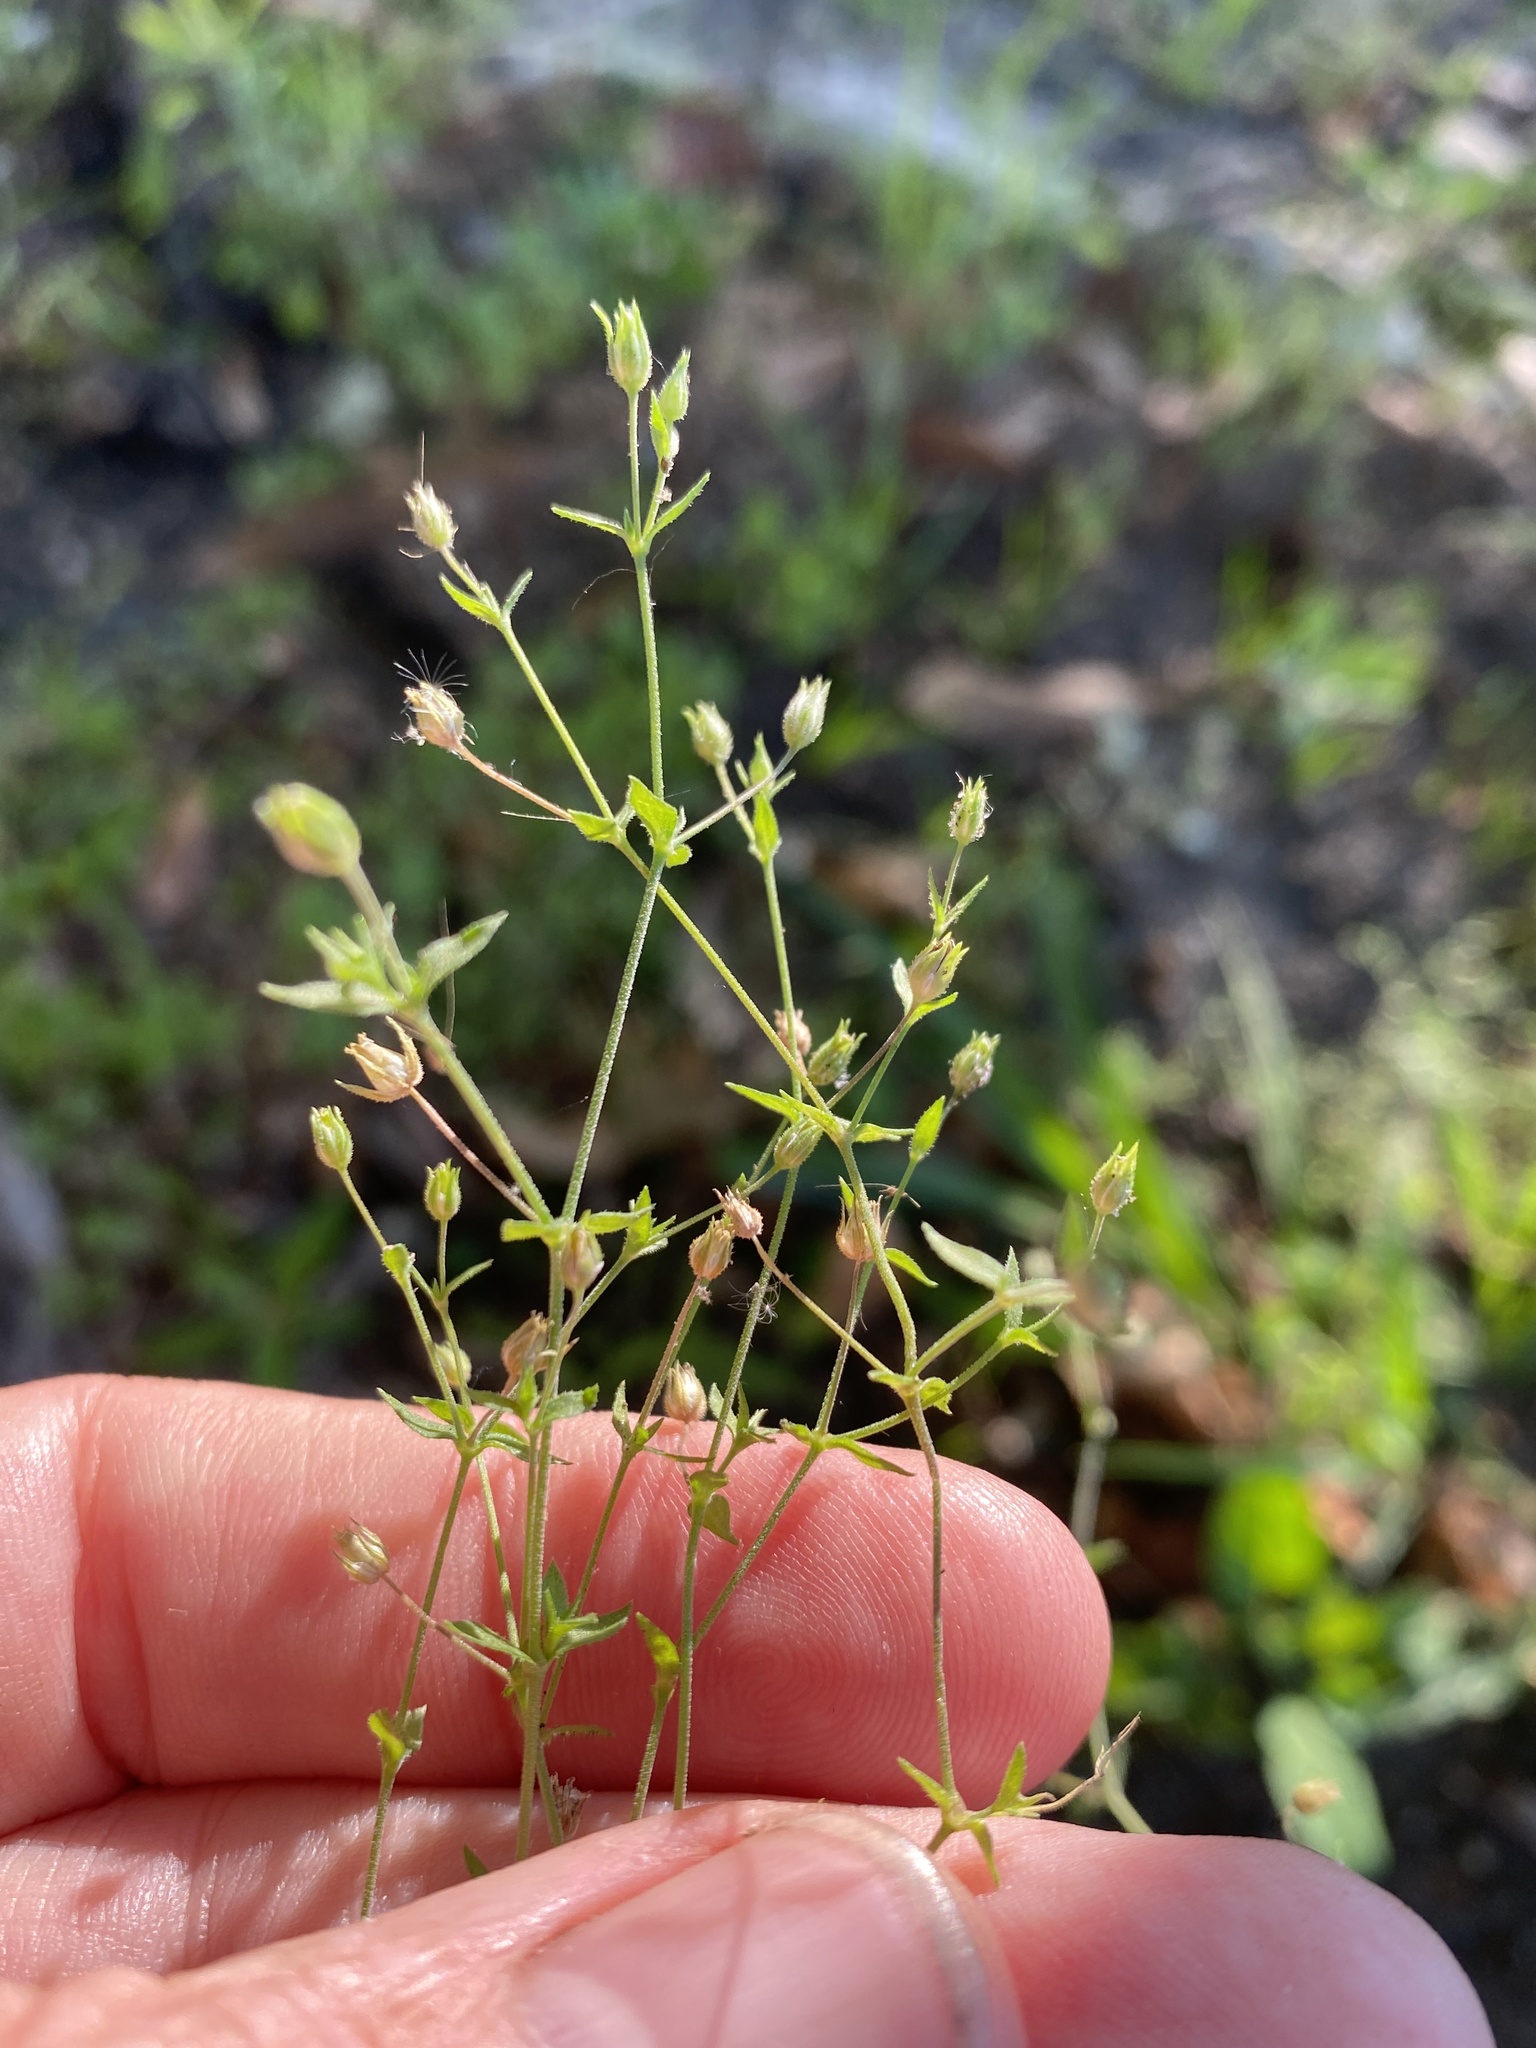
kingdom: Plantae
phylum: Tracheophyta
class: Magnoliopsida
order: Caryophyllales
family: Caryophyllaceae
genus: Arenaria
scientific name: Arenaria serpyllifolia
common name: Thyme-leaved sandwort
